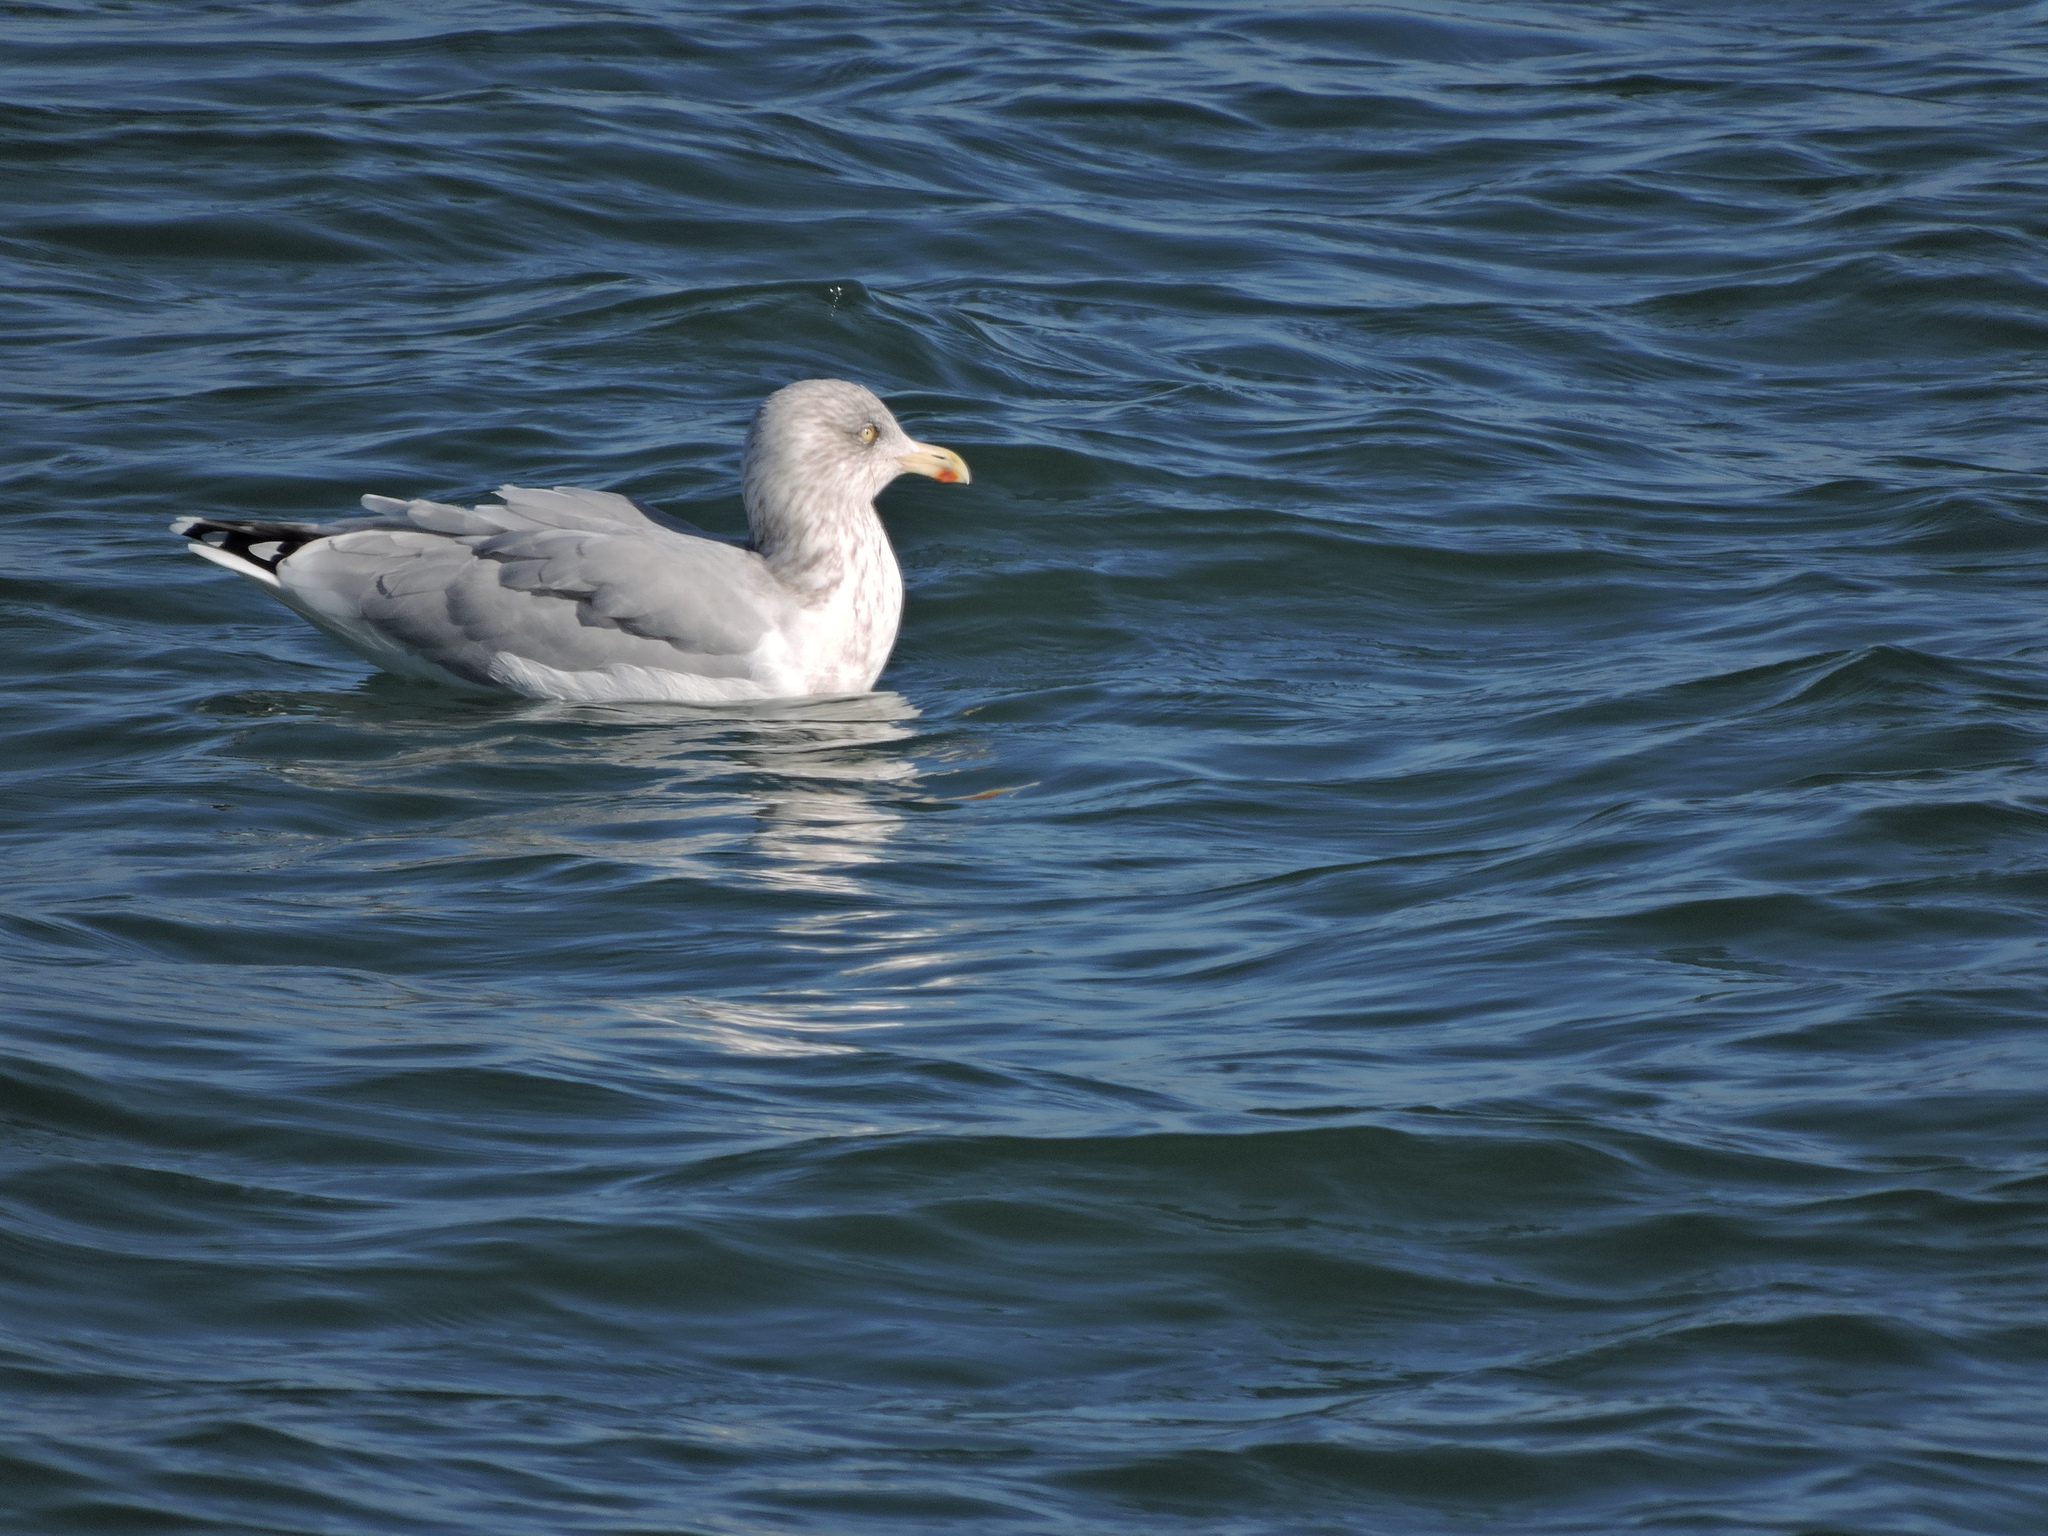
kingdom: Animalia
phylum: Chordata
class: Aves
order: Charadriiformes
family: Laridae
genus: Larus
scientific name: Larus argentatus
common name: Herring gull
